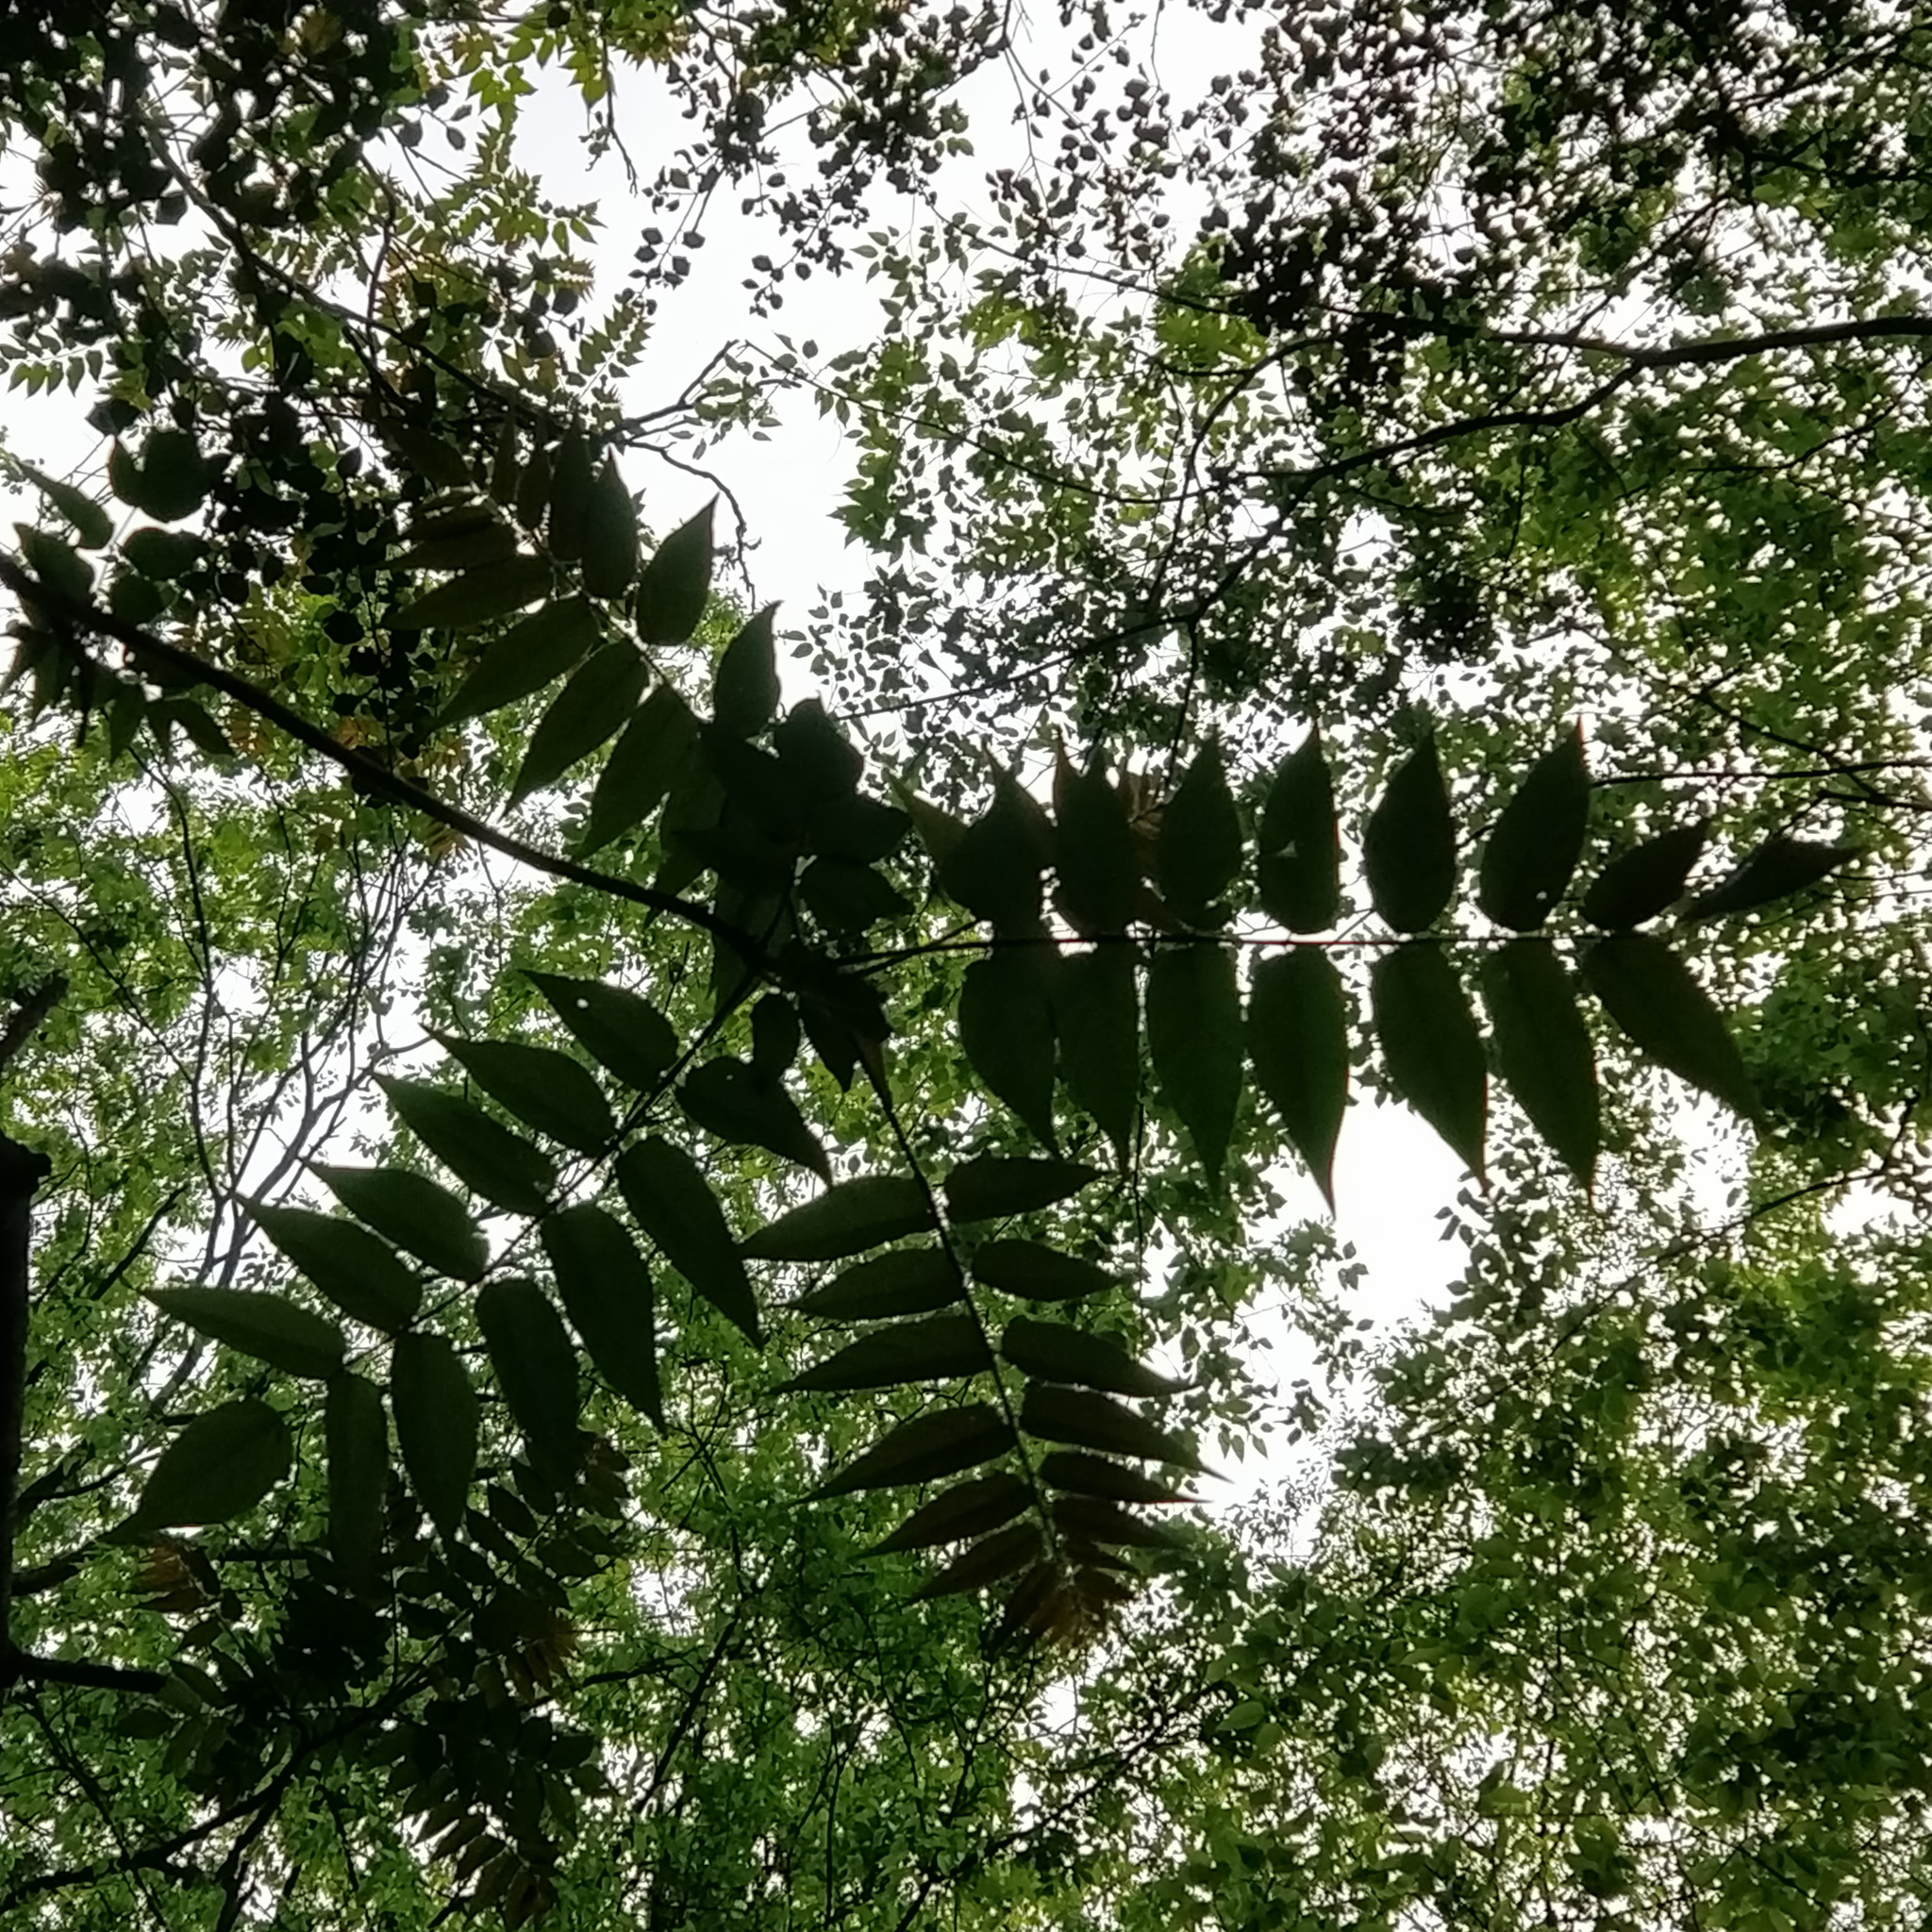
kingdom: Plantae
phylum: Tracheophyta
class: Magnoliopsida
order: Sapindales
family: Simaroubaceae
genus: Ailanthus
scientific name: Ailanthus altissima
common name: Tree-of-heaven
